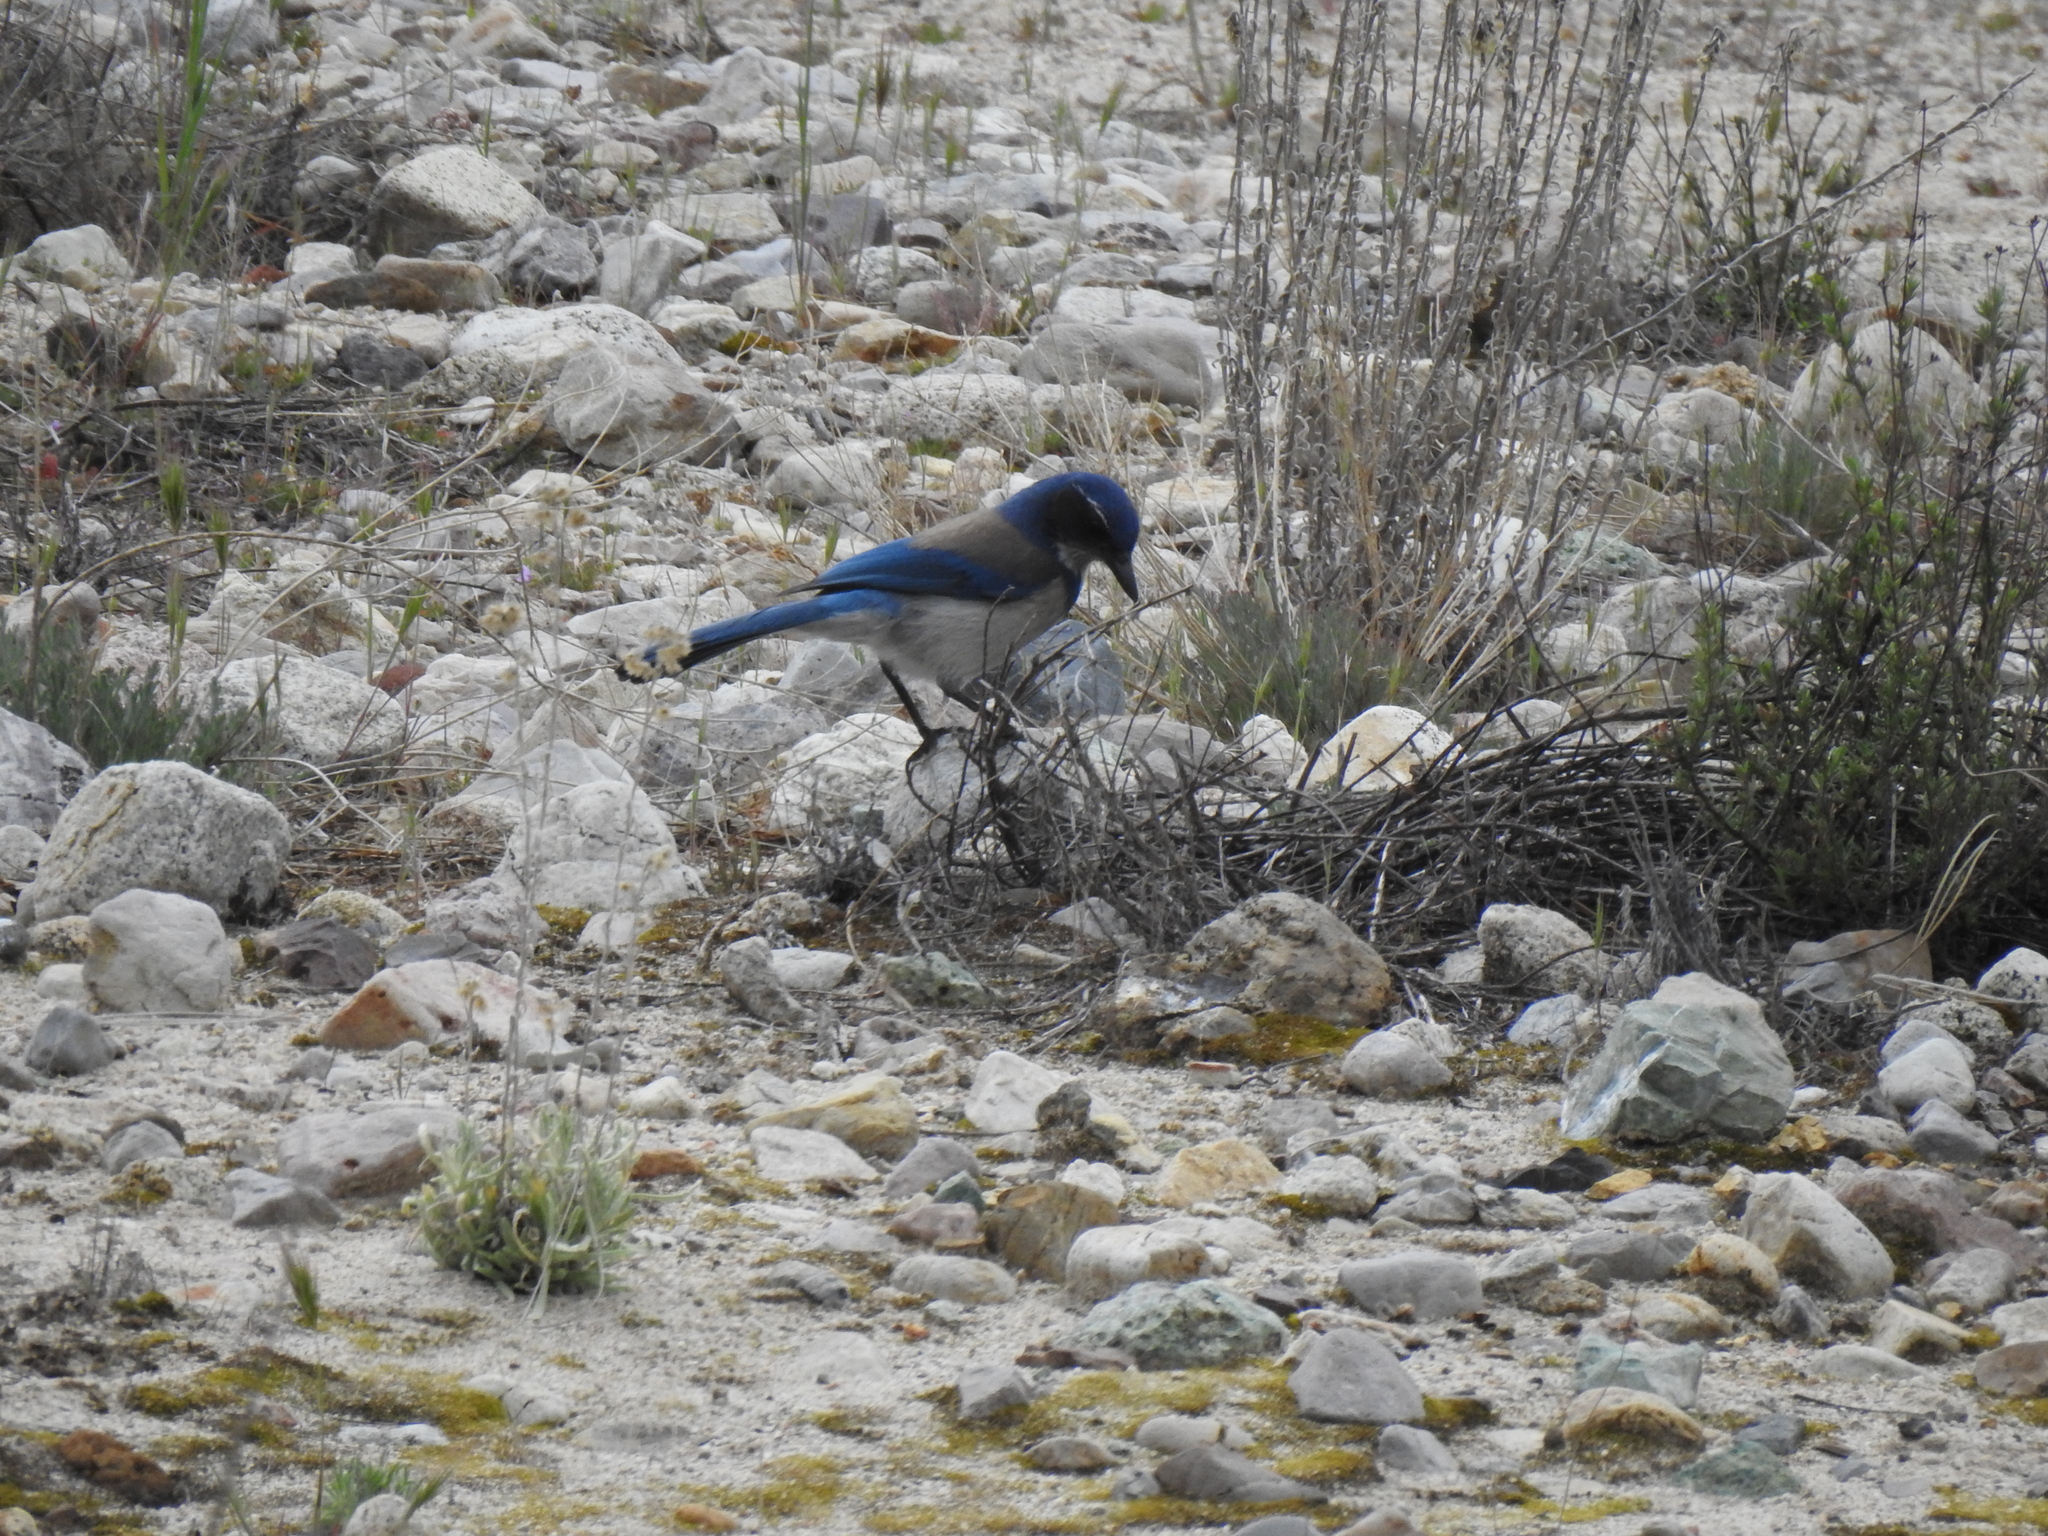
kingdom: Animalia
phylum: Chordata
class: Aves
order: Passeriformes
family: Corvidae
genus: Aphelocoma
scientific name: Aphelocoma californica
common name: California scrub-jay
